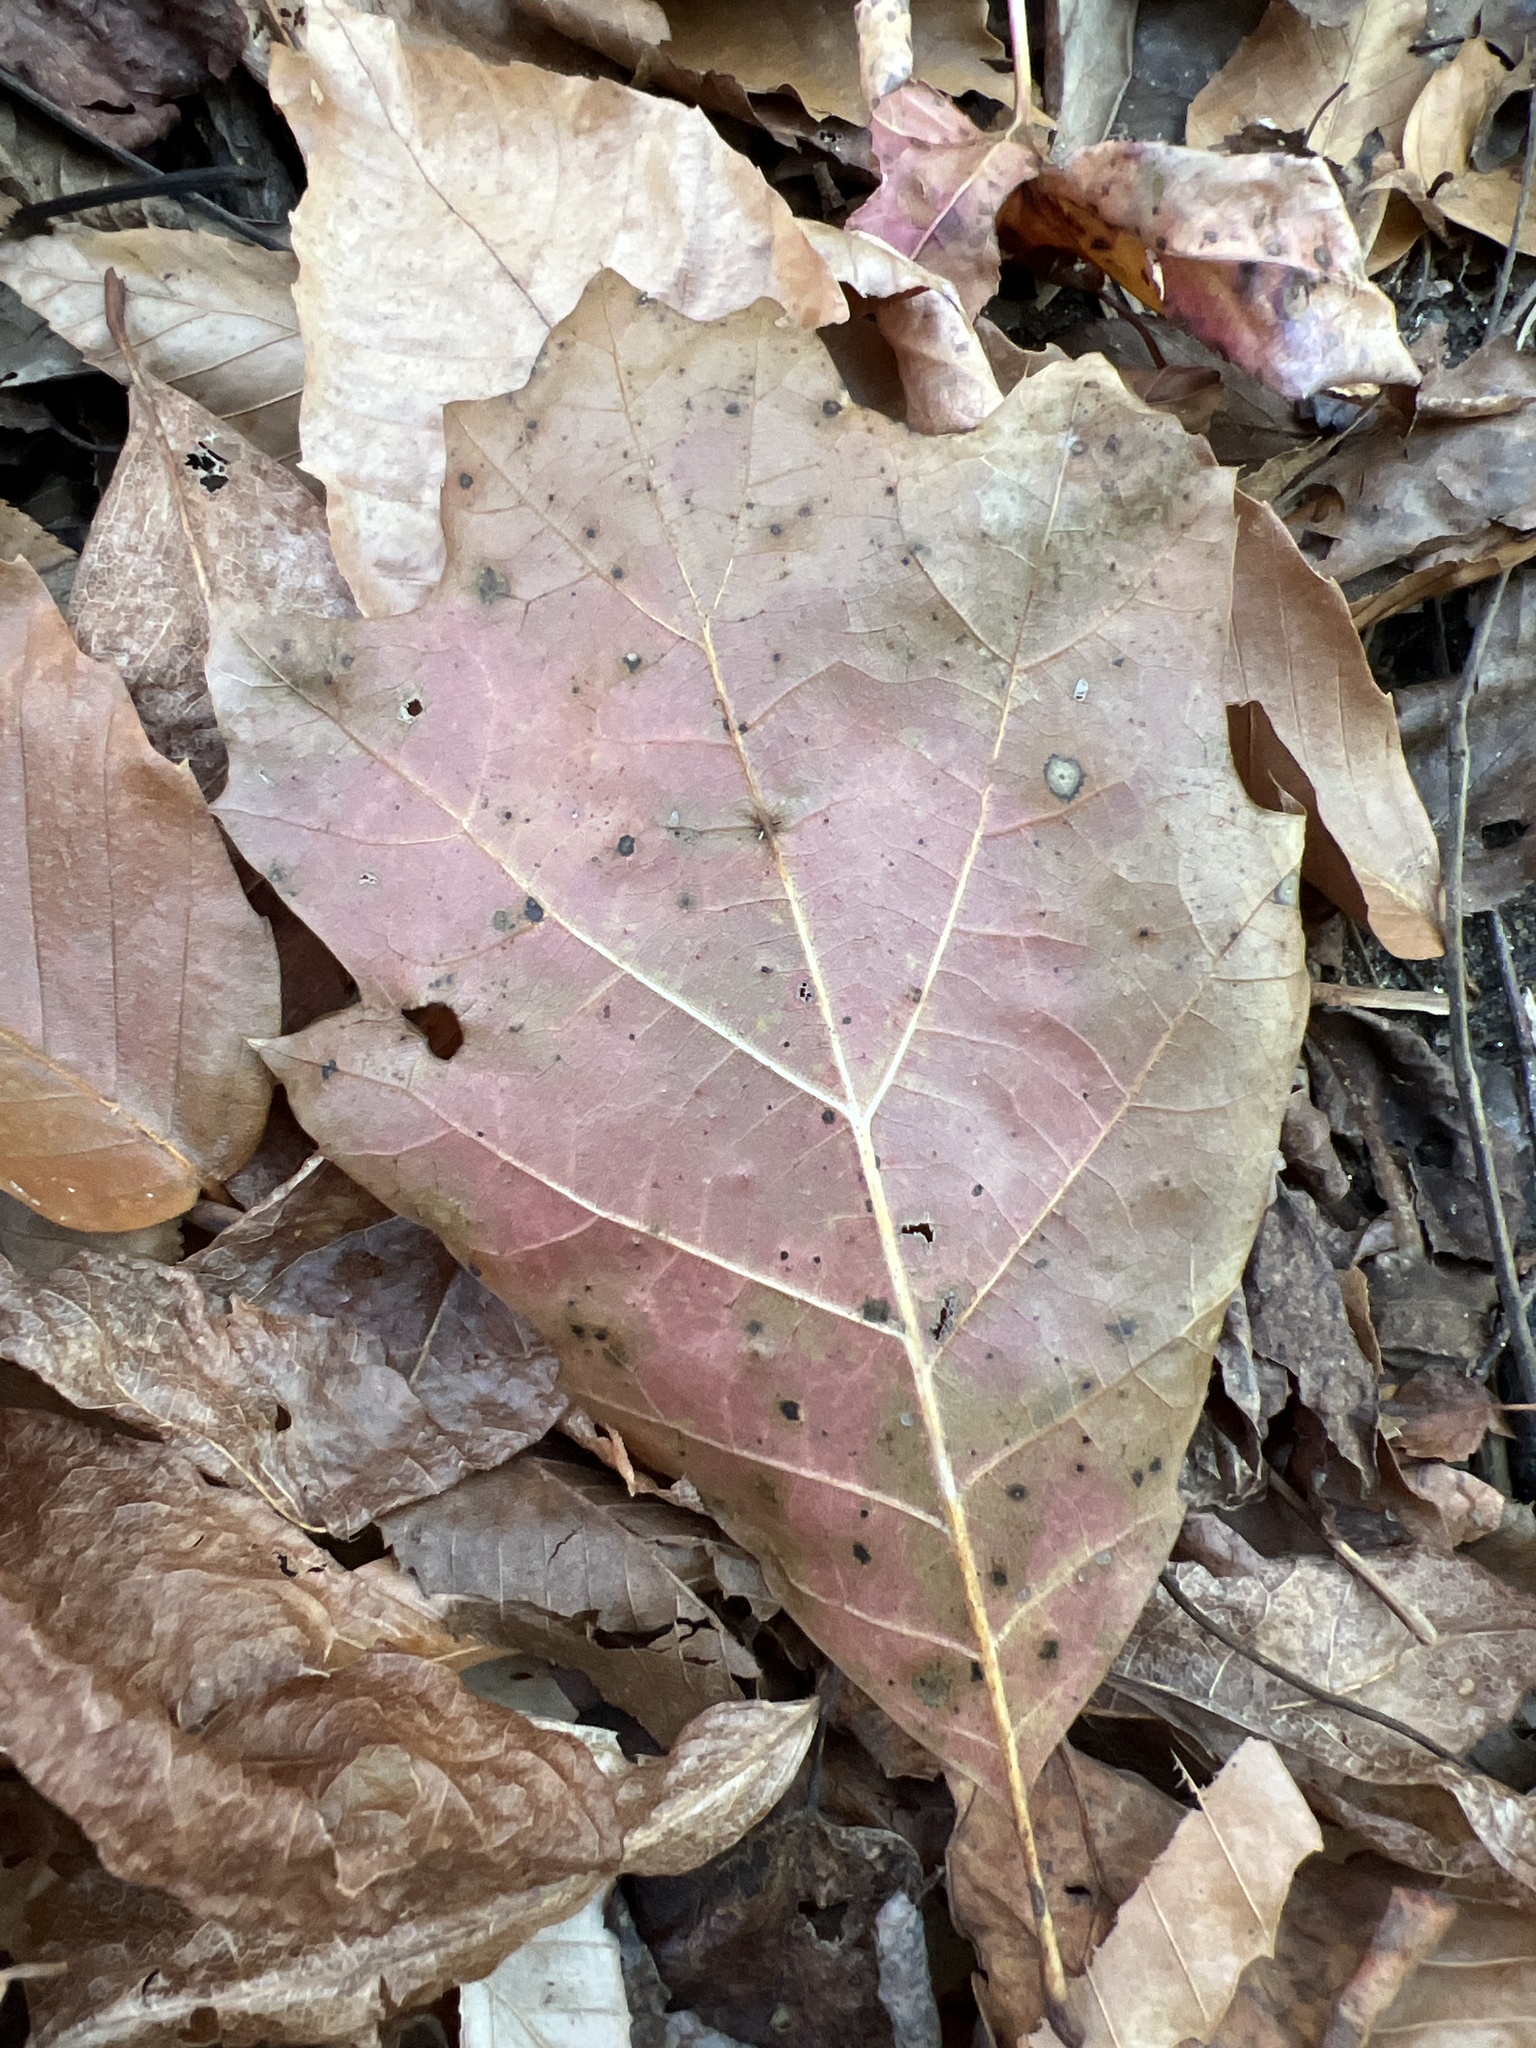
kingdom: Plantae
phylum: Tracheophyta
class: Magnoliopsida
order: Fagales
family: Fagaceae
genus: Quercus
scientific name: Quercus rubra
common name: Red oak
